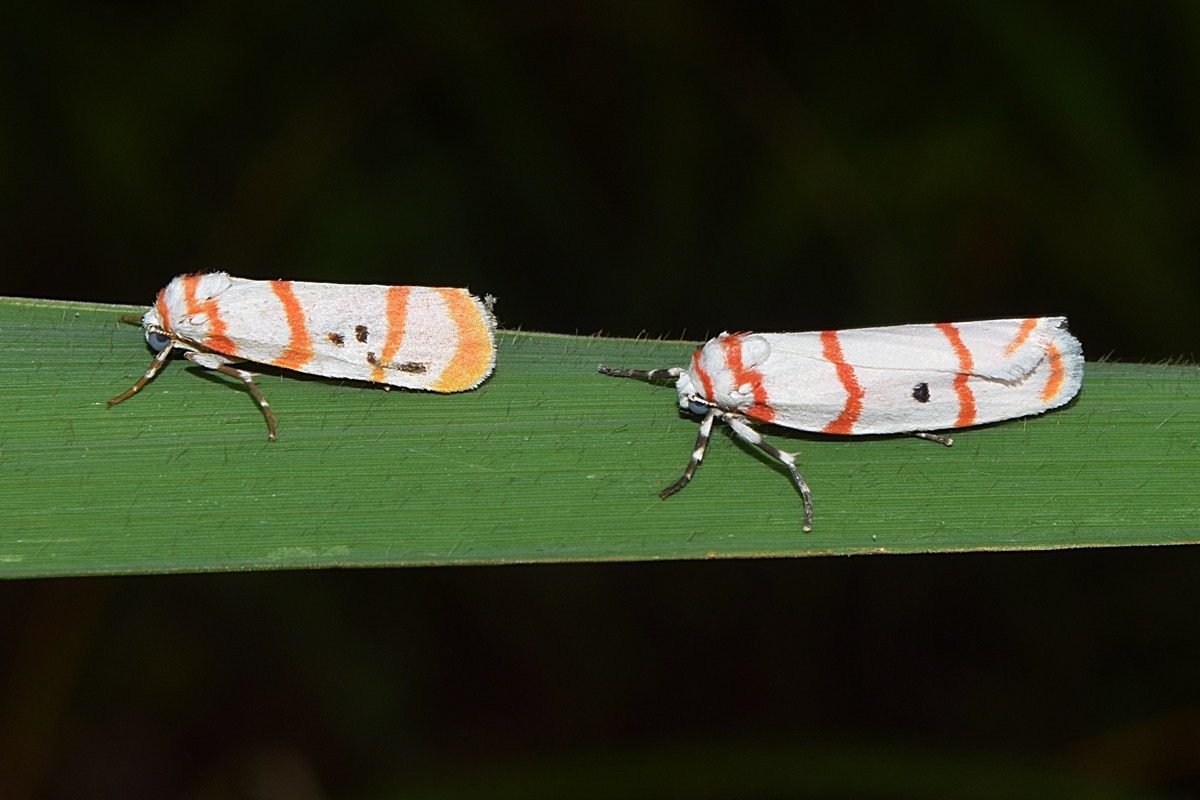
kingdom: Animalia
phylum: Arthropoda
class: Insecta
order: Lepidoptera
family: Erebidae
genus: Cyana
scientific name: Cyana quadrinotata
